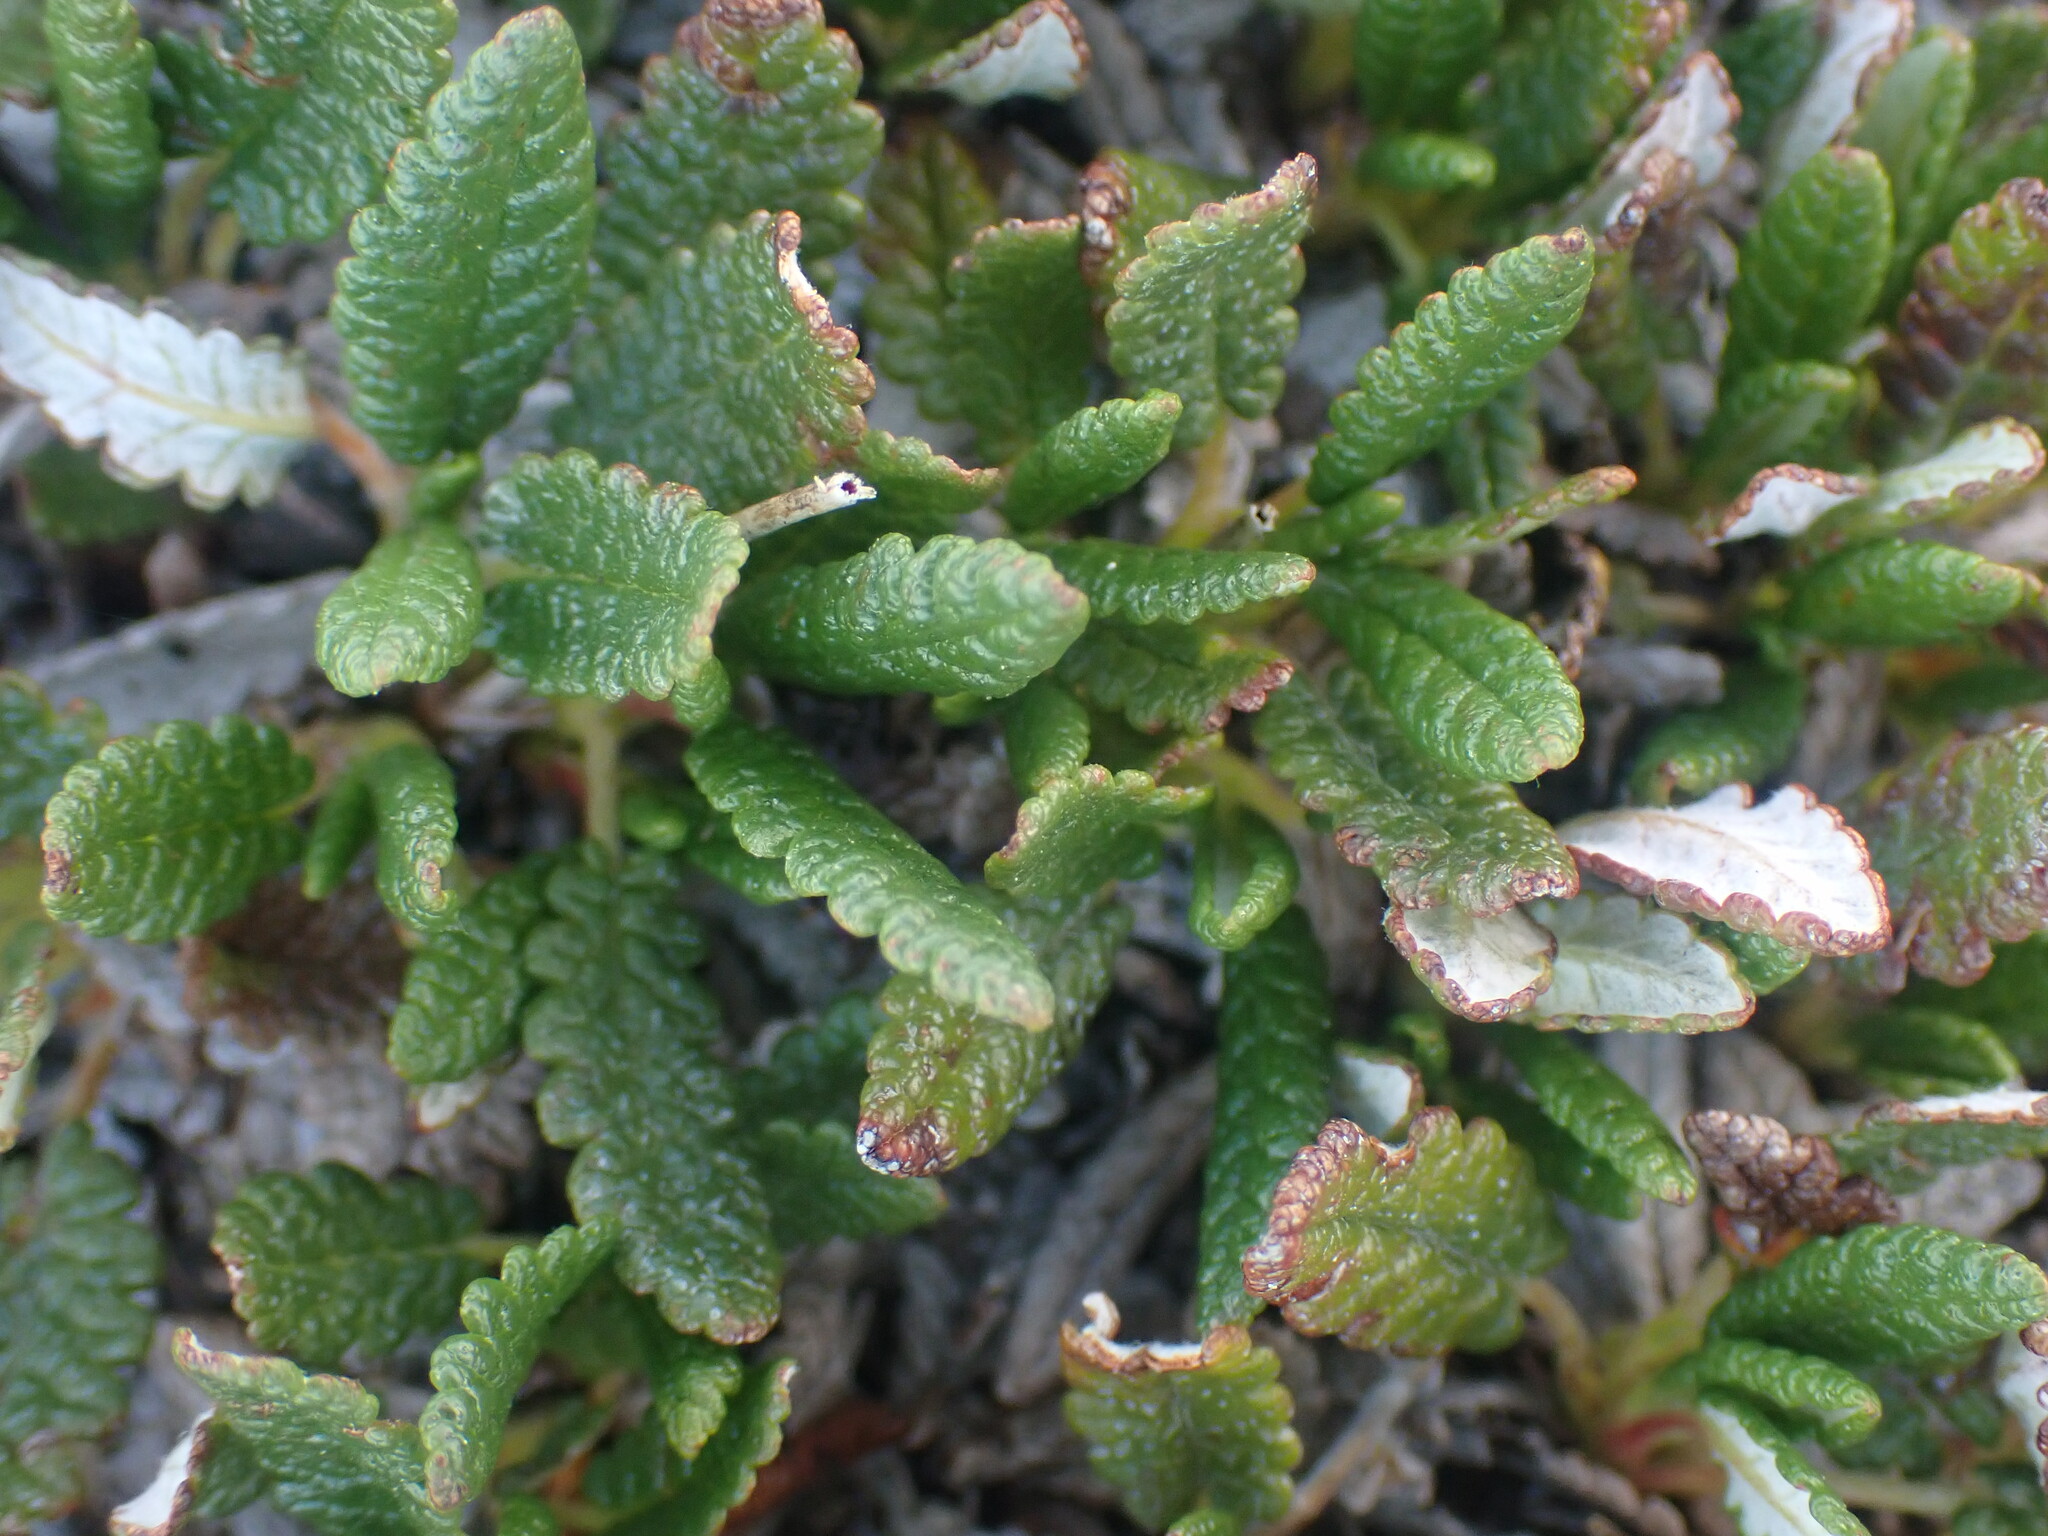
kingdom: Plantae
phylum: Tracheophyta
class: Magnoliopsida
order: Rosales
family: Rosaceae
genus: Dryas
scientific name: Dryas octopetala
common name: Eight-petal mountain-avens
